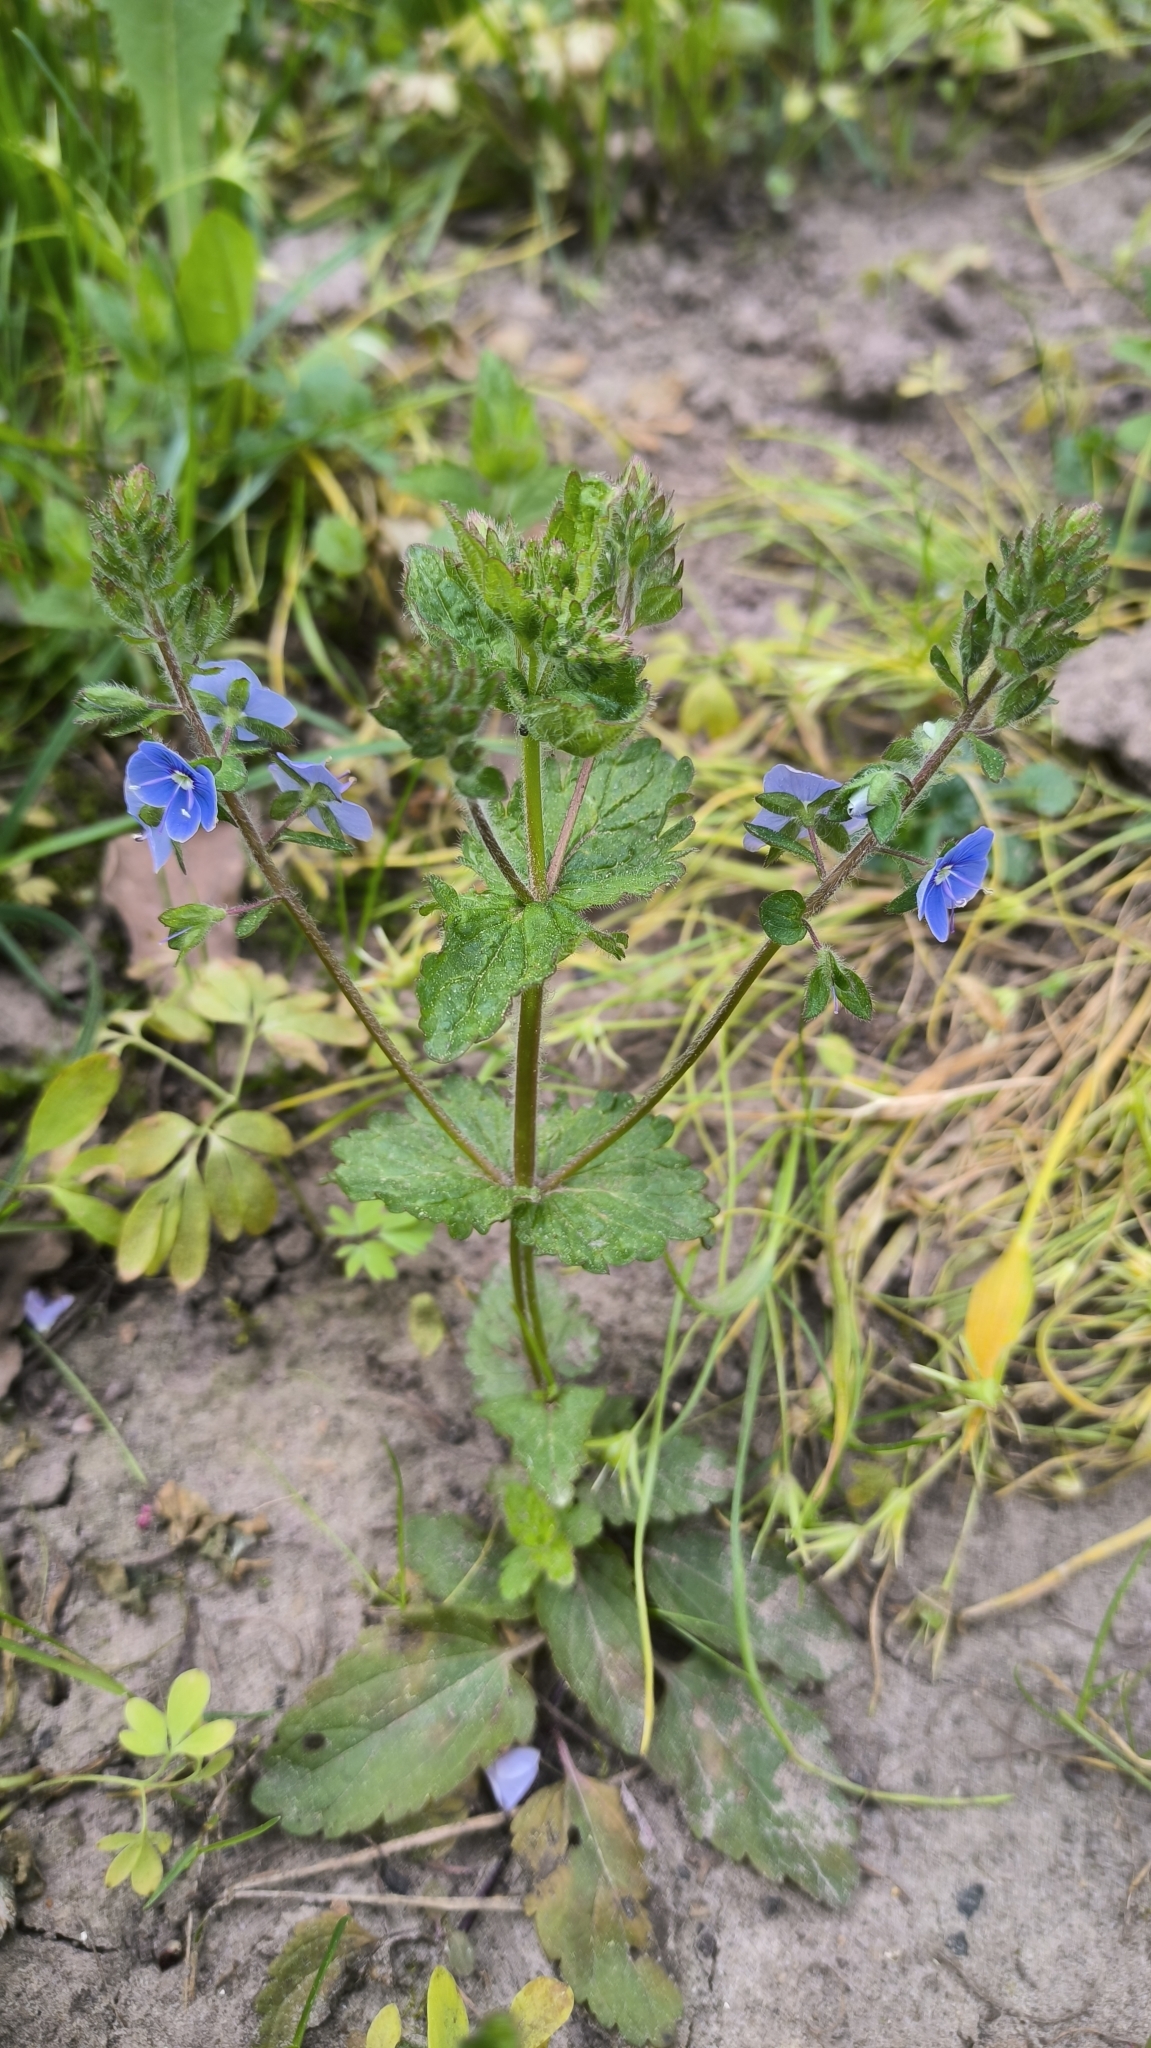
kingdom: Plantae
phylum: Tracheophyta
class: Magnoliopsida
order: Lamiales
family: Plantaginaceae
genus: Veronica
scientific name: Veronica chamaedrys
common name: Germander speedwell
